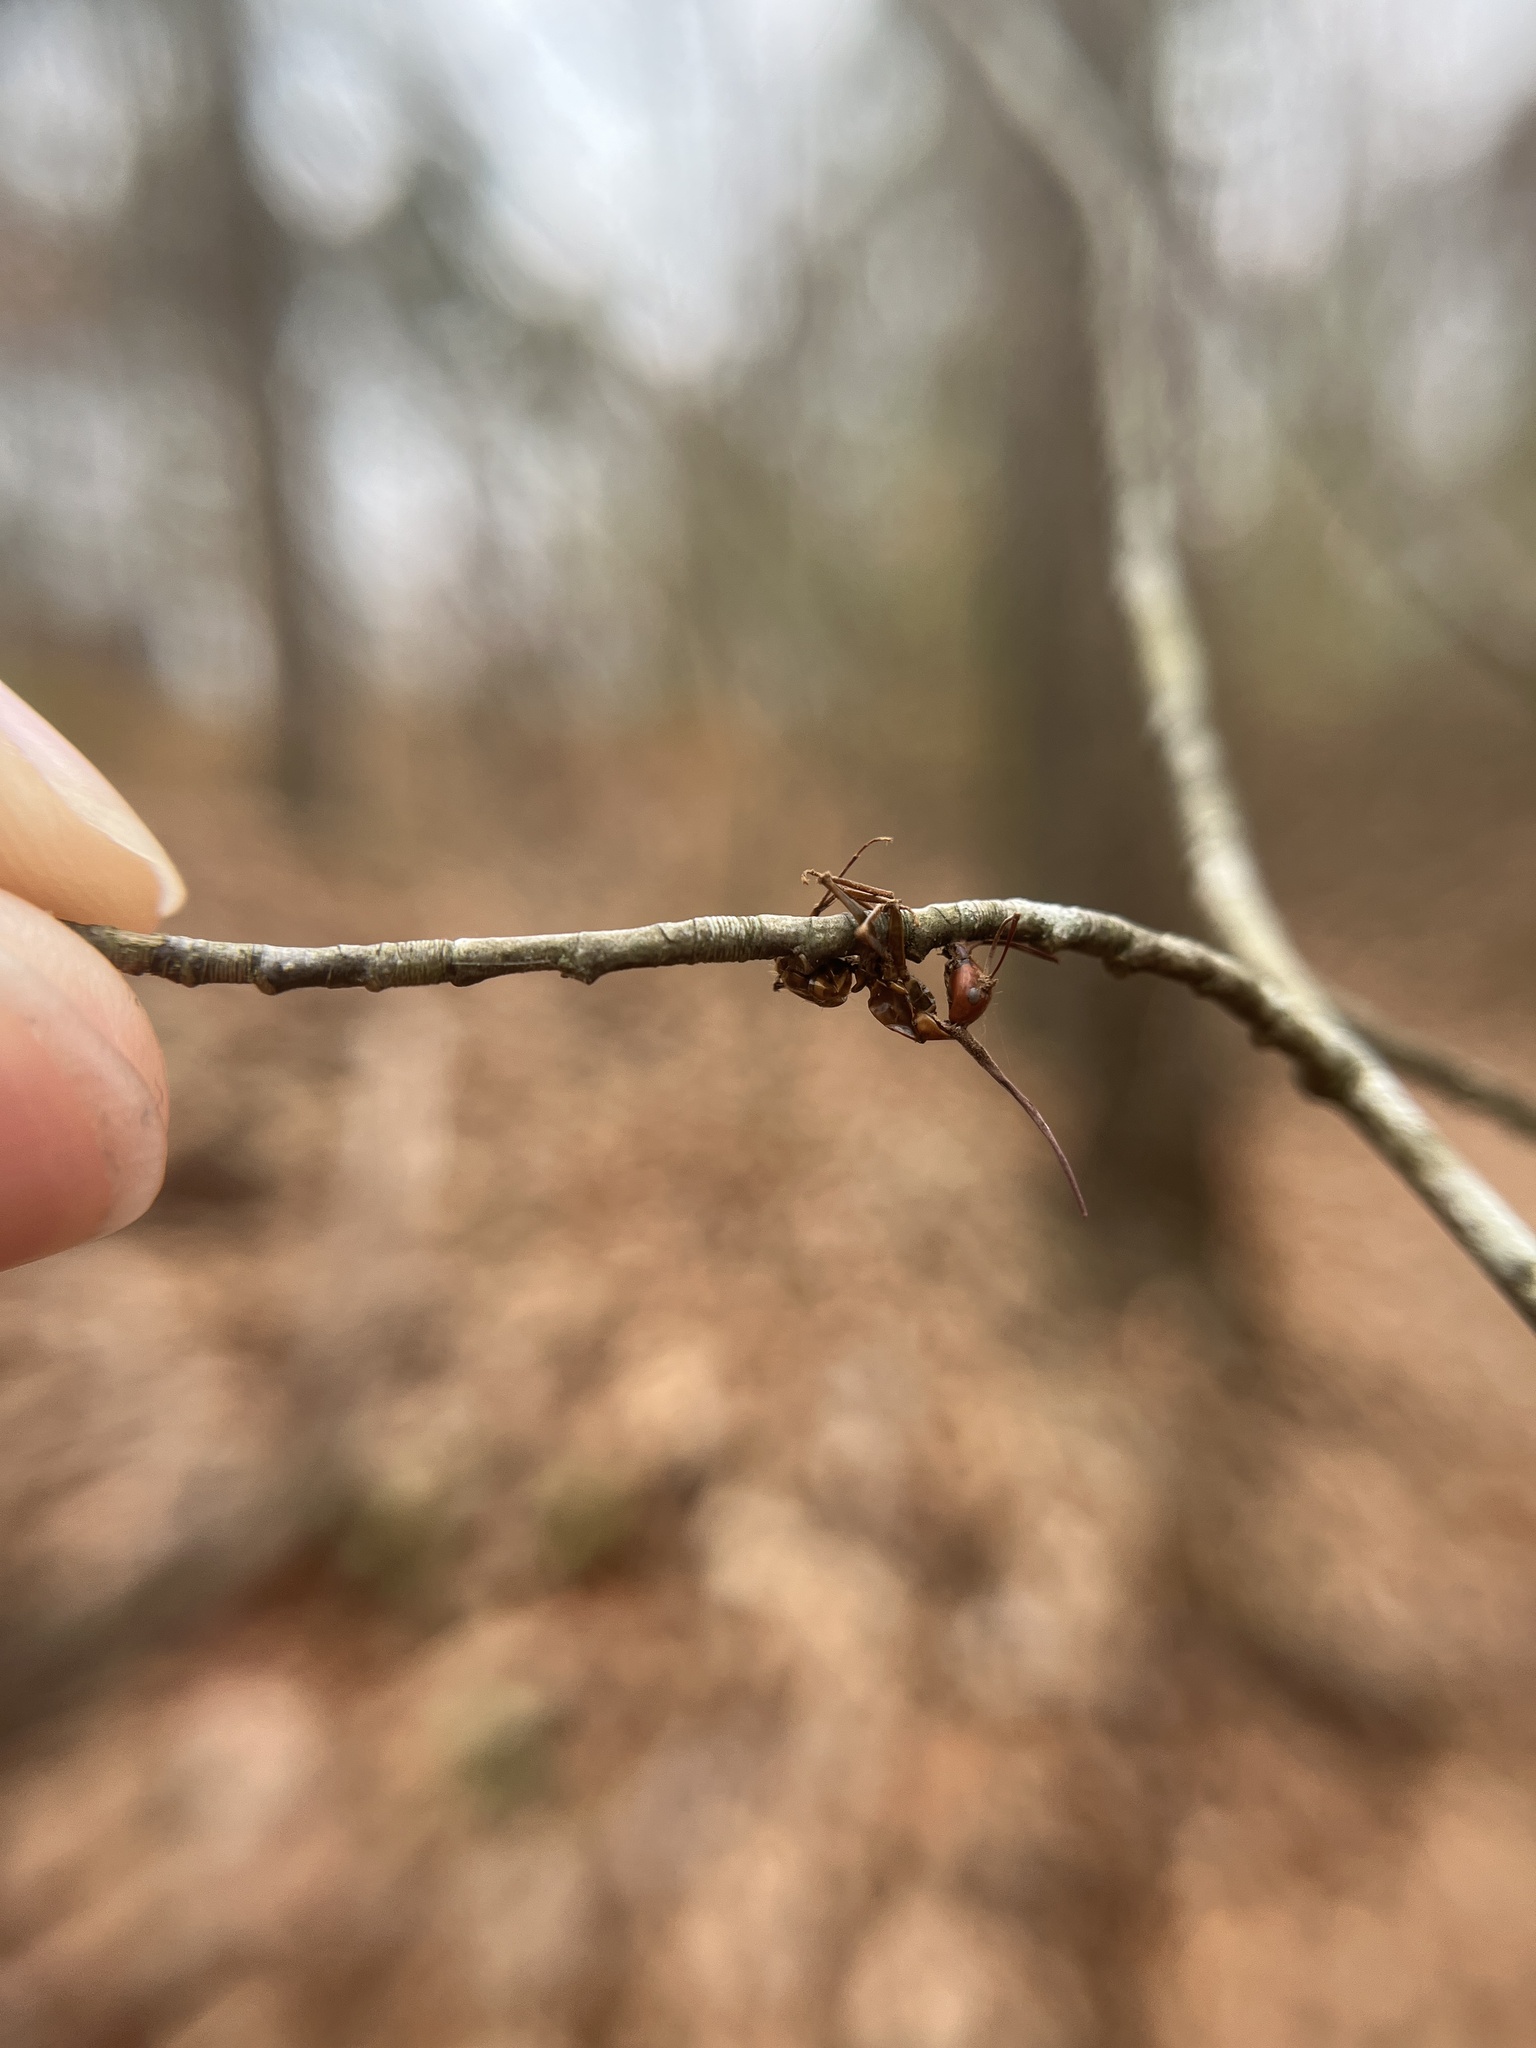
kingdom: Fungi
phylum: Ascomycota
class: Sordariomycetes
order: Hypocreales
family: Ophiocordycipitaceae
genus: Ophiocordyceps
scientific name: Ophiocordyceps kimflemingiae
